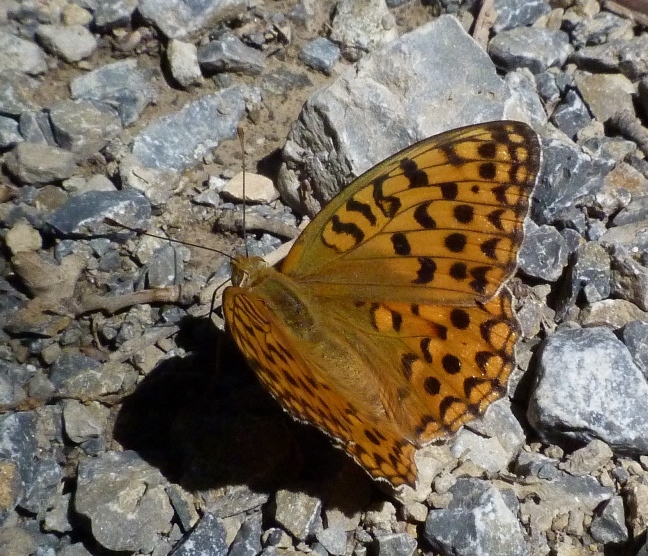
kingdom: Animalia
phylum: Arthropoda
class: Insecta
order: Lepidoptera
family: Nymphalidae
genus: Fabriciana
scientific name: Fabriciana adippe
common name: High brown fritillary
